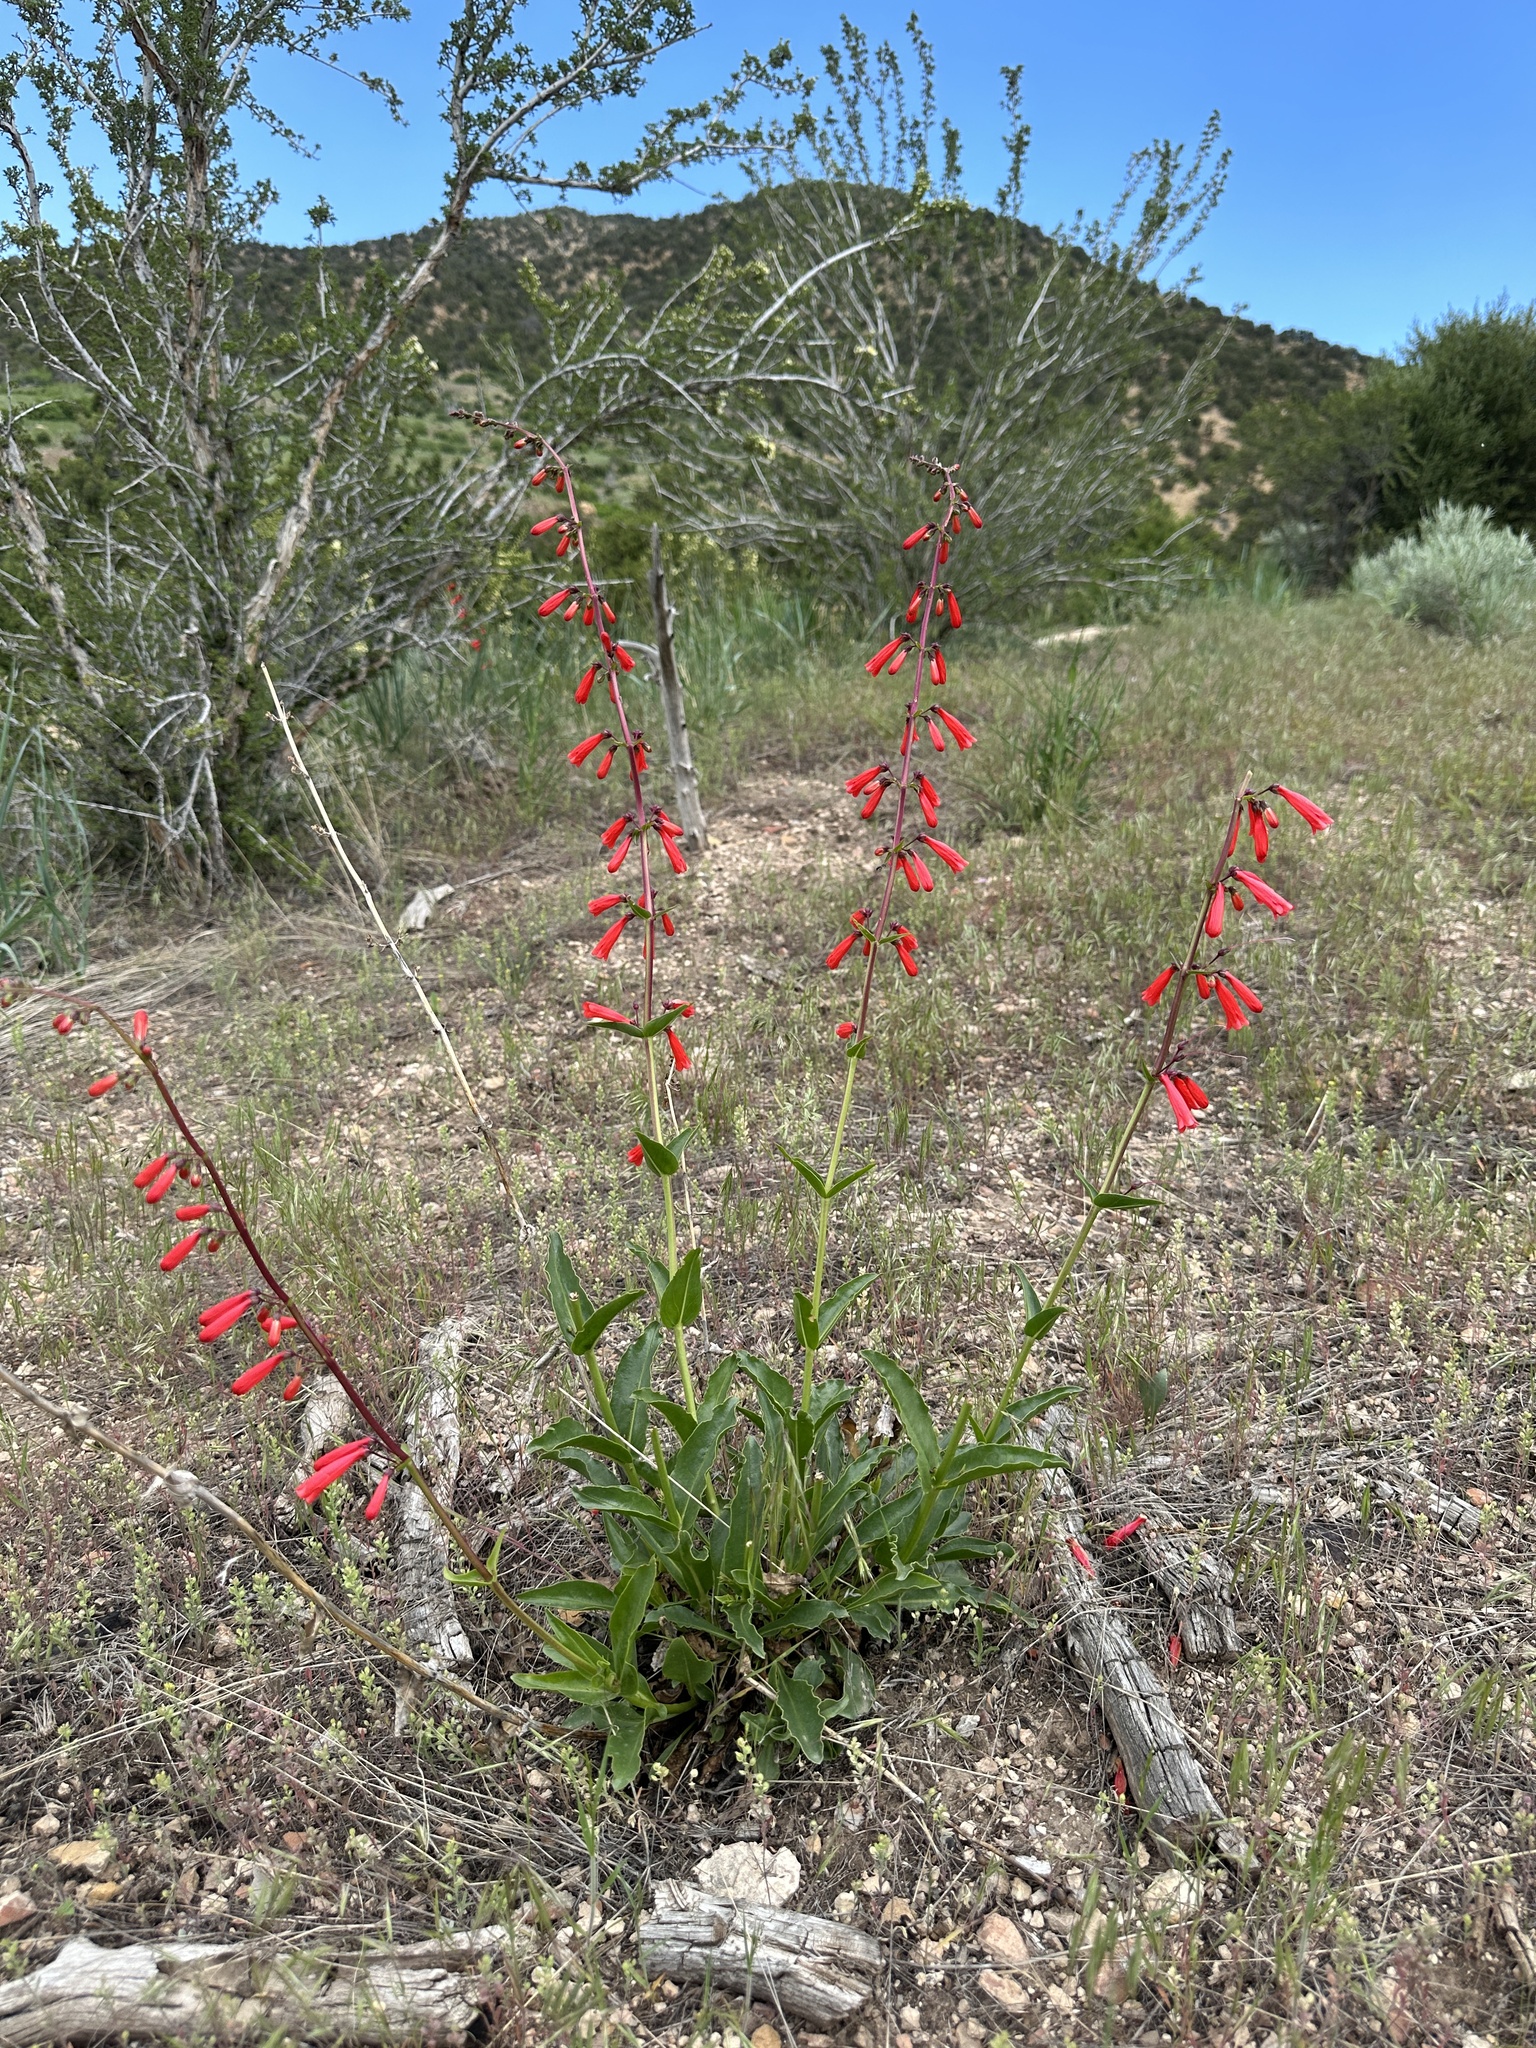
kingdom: Plantae
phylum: Tracheophyta
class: Magnoliopsida
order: Lamiales
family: Plantaginaceae
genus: Penstemon
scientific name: Penstemon eatonii
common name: Eaton's penstemon
